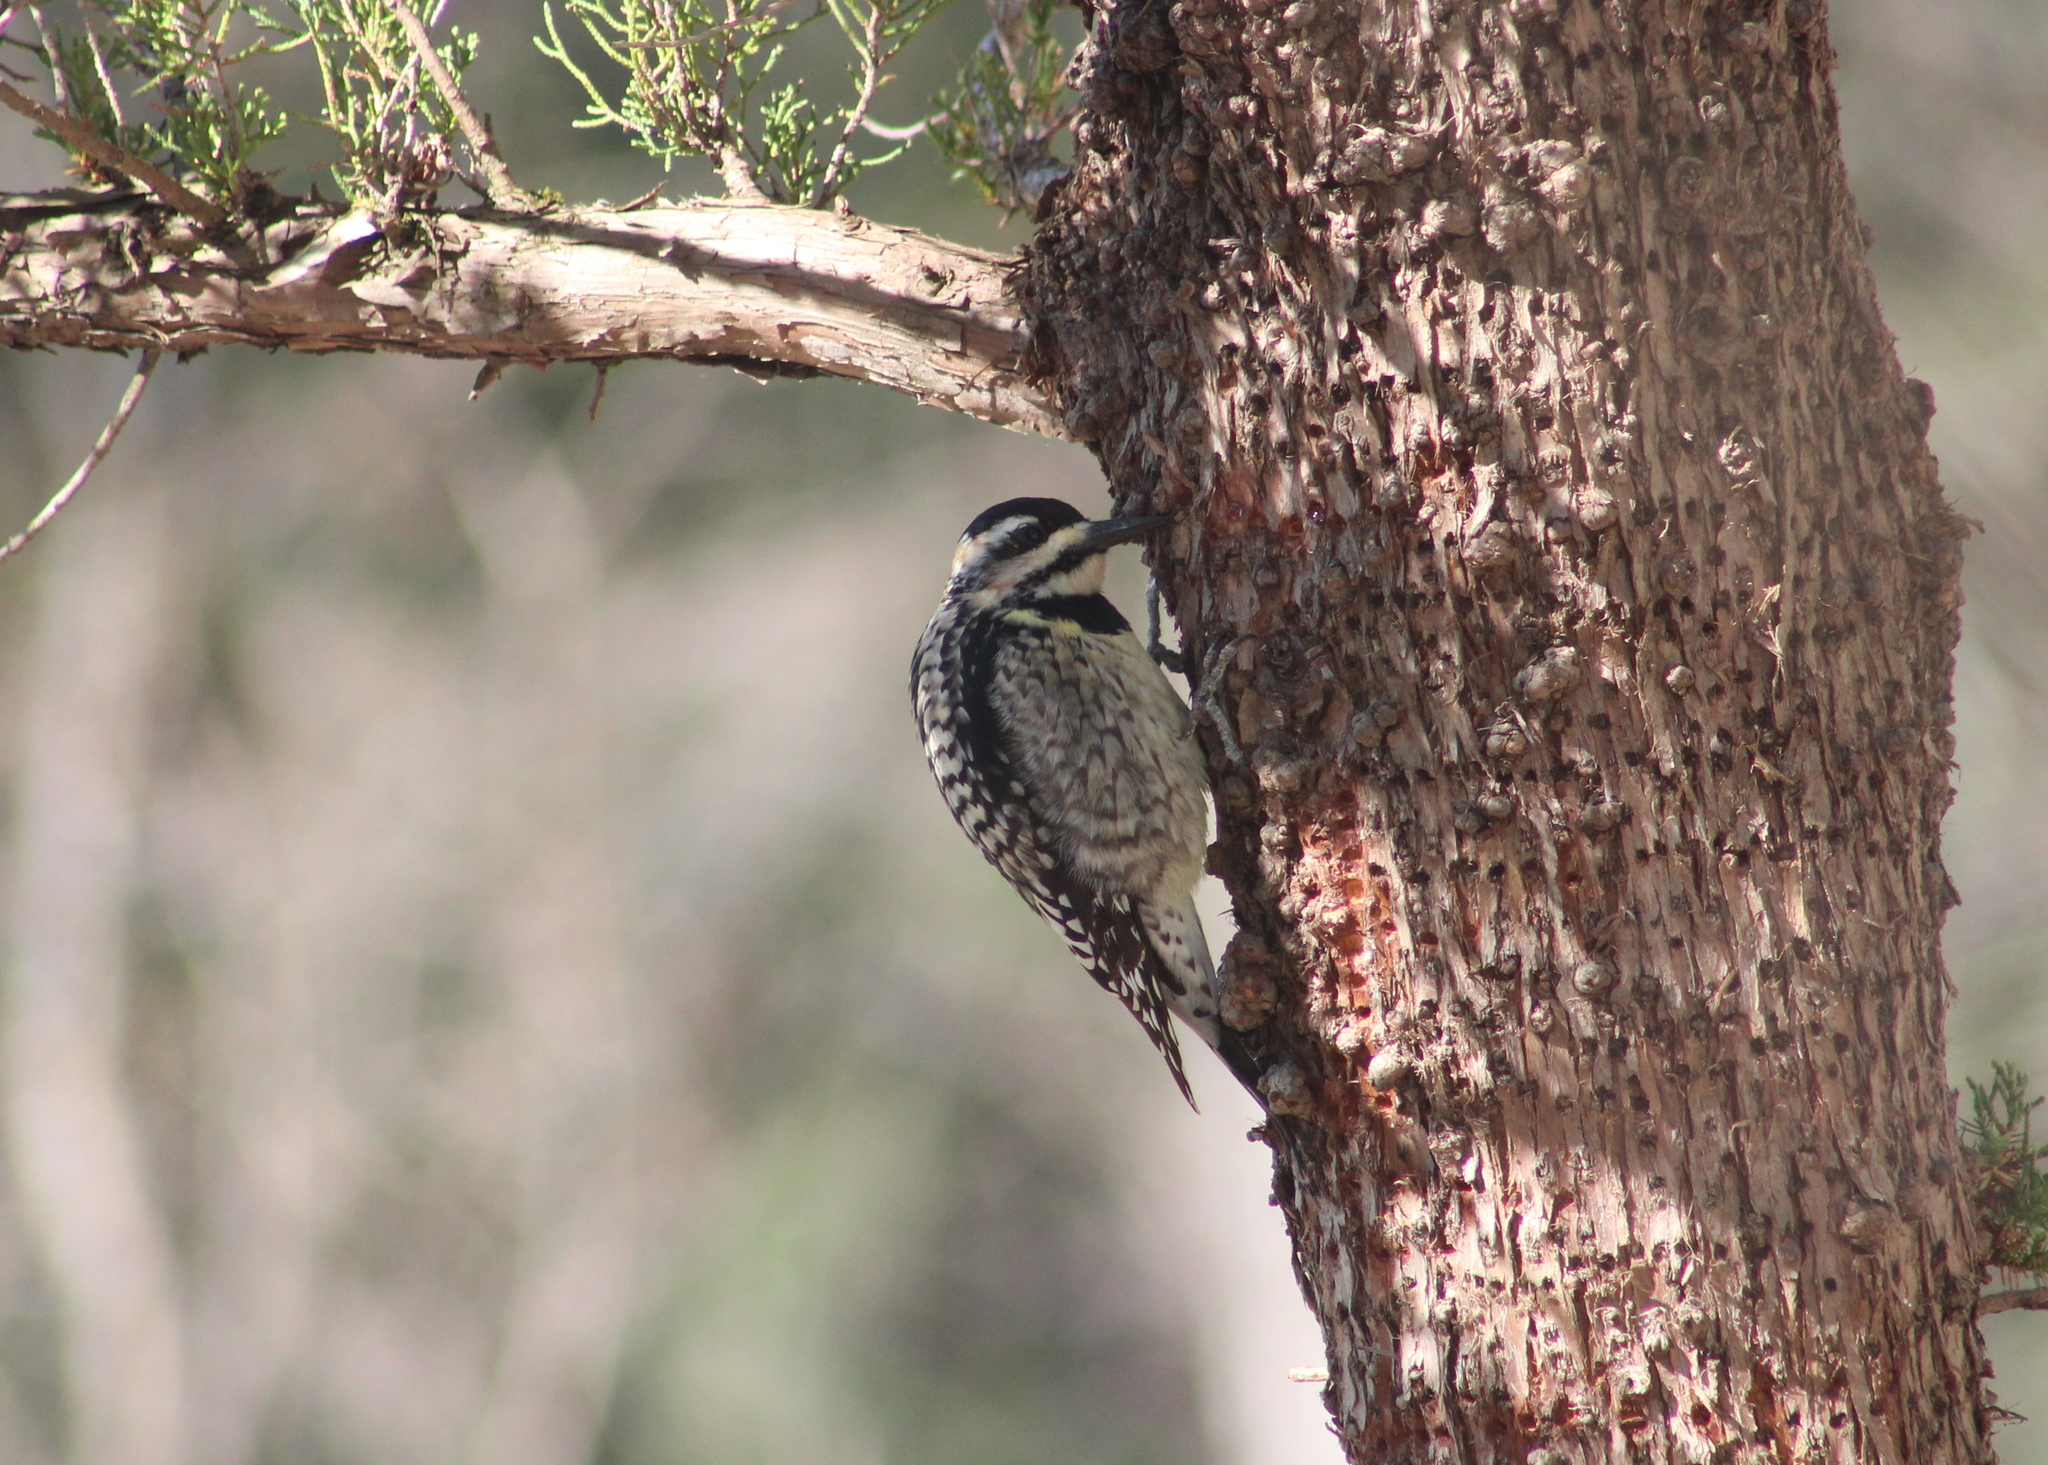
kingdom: Animalia
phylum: Chordata
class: Aves
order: Piciformes
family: Picidae
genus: Sphyrapicus
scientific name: Sphyrapicus varius
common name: Yellow-bellied sapsucker
